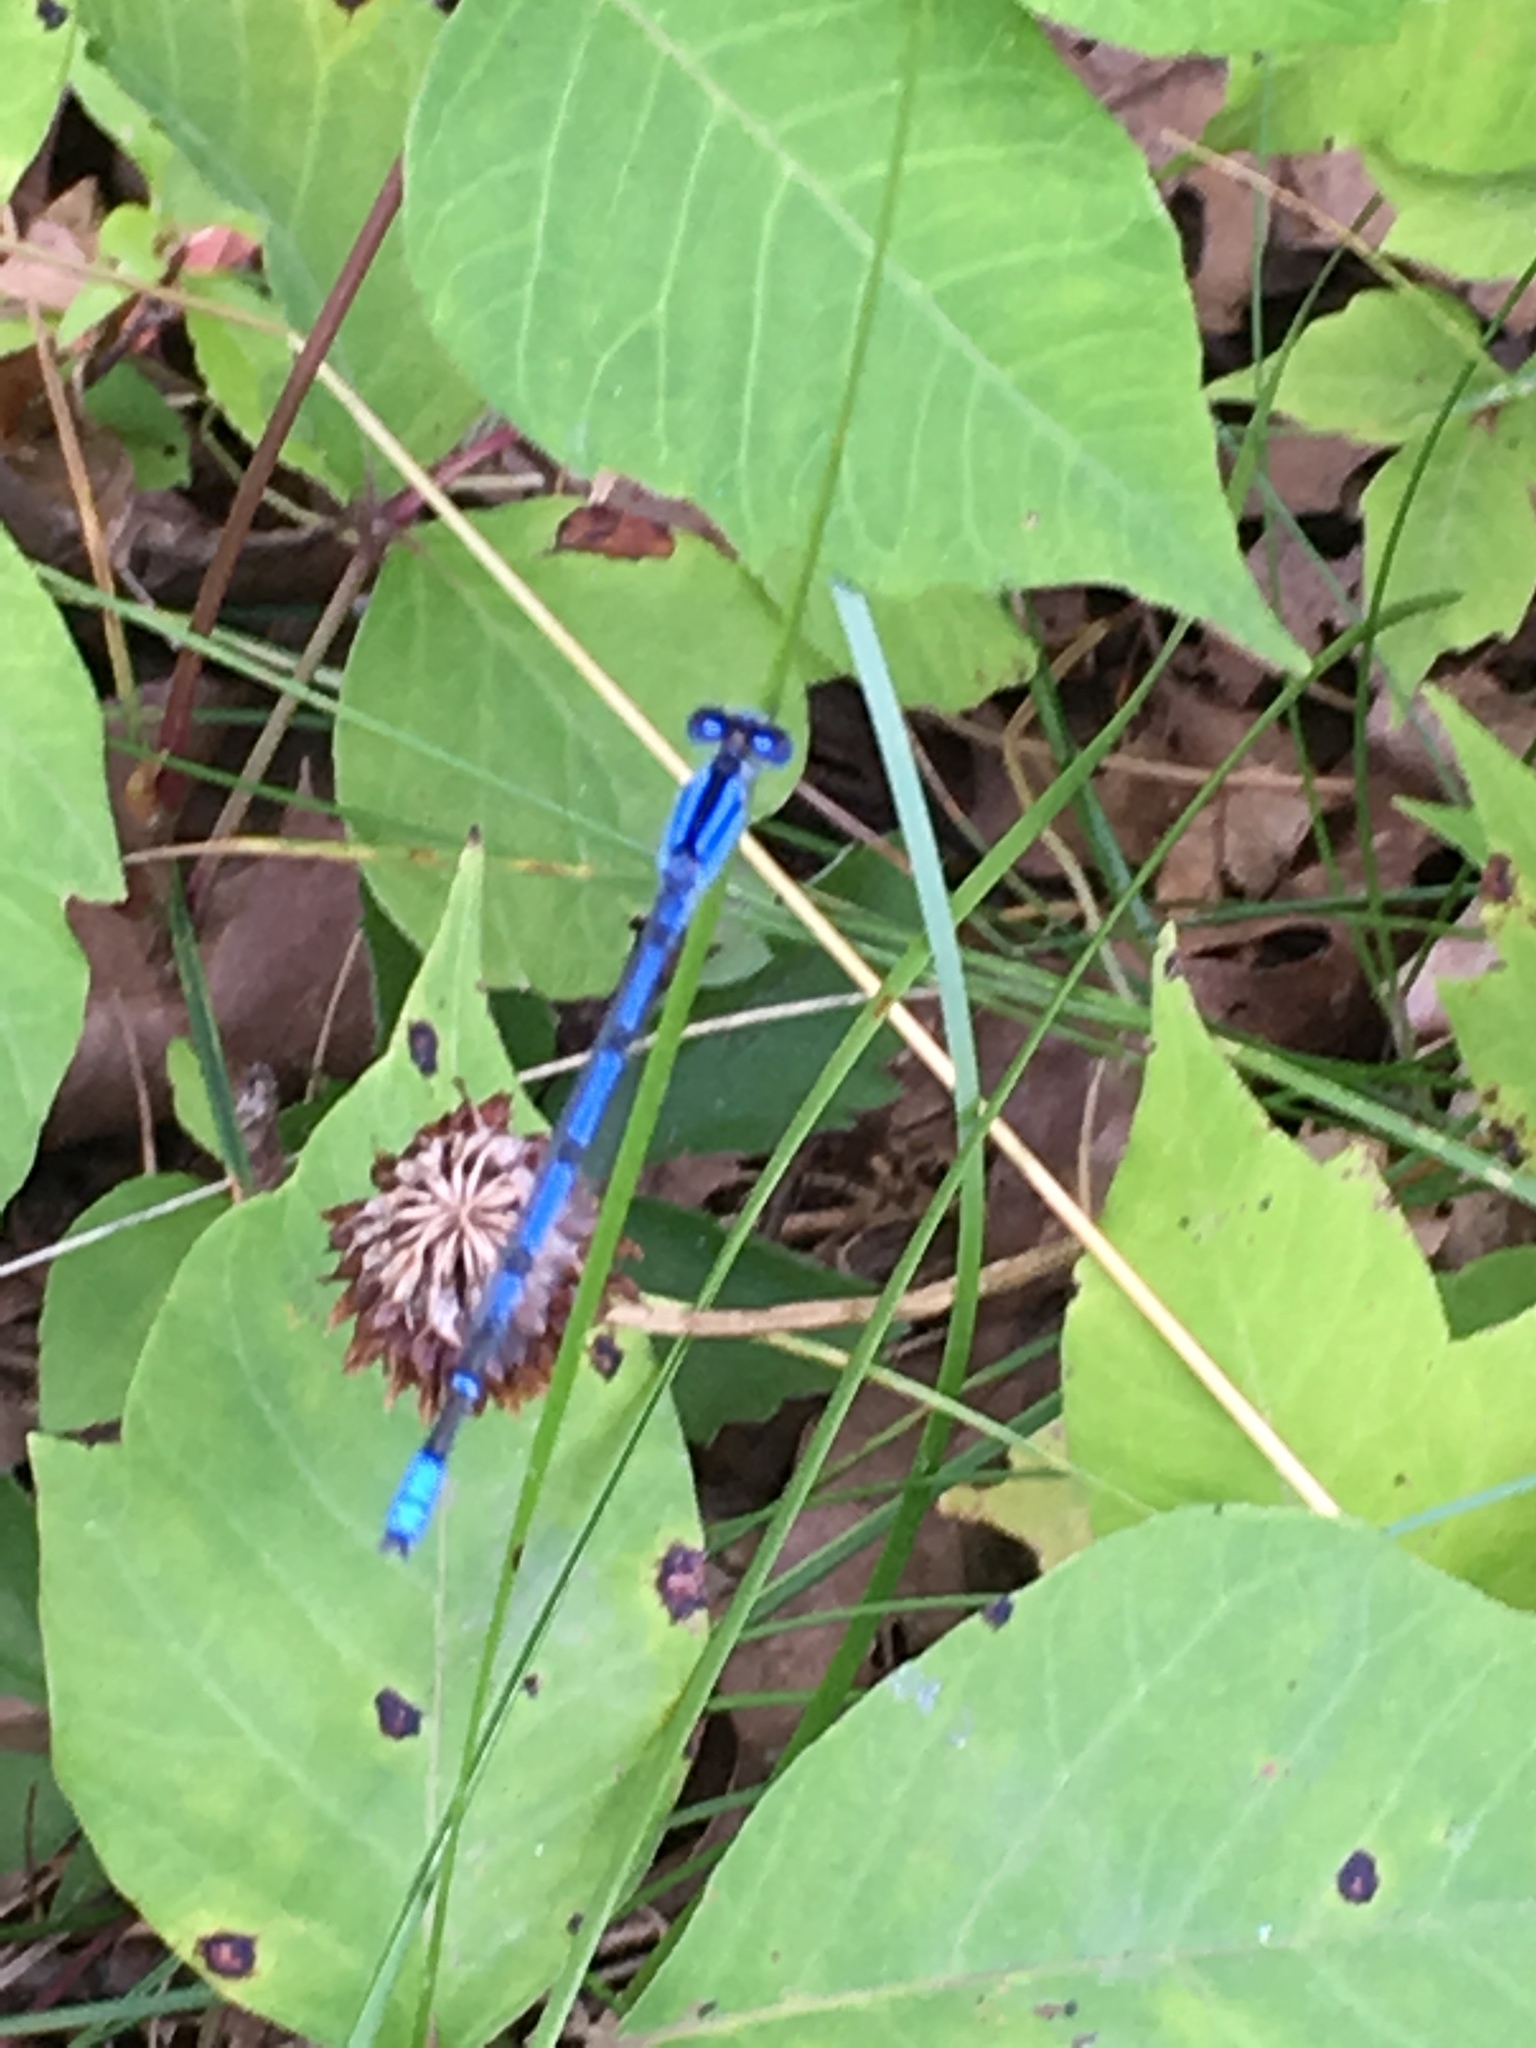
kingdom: Animalia
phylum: Arthropoda
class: Insecta
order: Odonata
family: Coenagrionidae
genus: Enallagma
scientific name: Enallagma civile
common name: Damselfly
